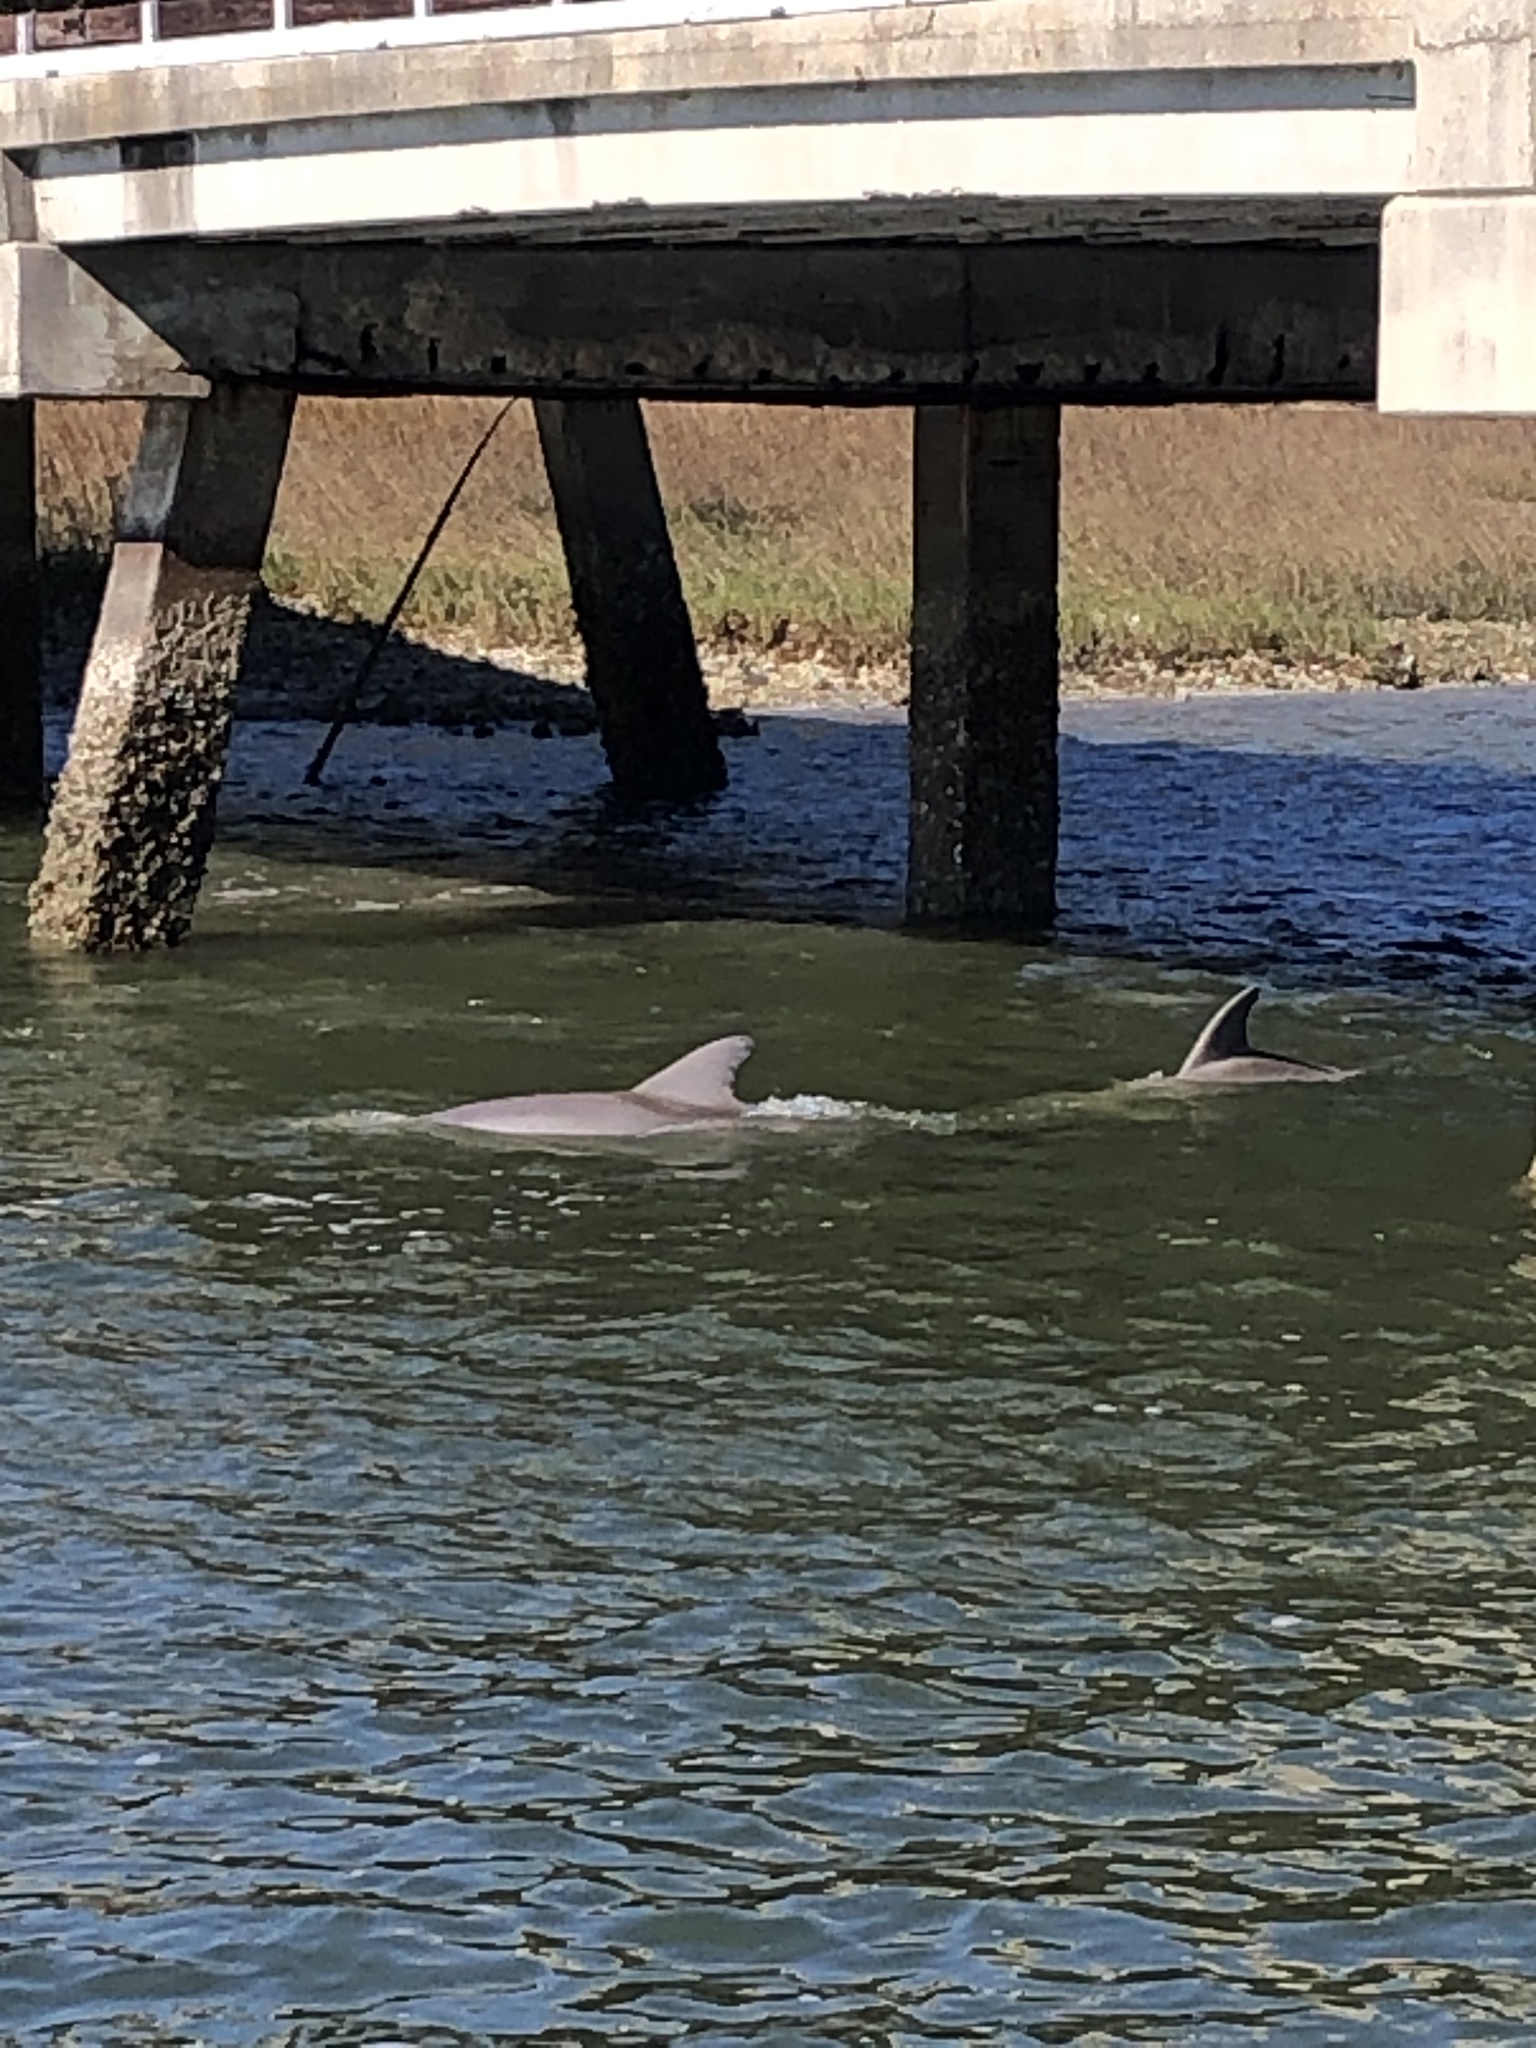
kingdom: Animalia
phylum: Chordata
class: Mammalia
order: Cetacea
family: Delphinidae
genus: Tursiops
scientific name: Tursiops truncatus
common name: Bottlenose dolphin
